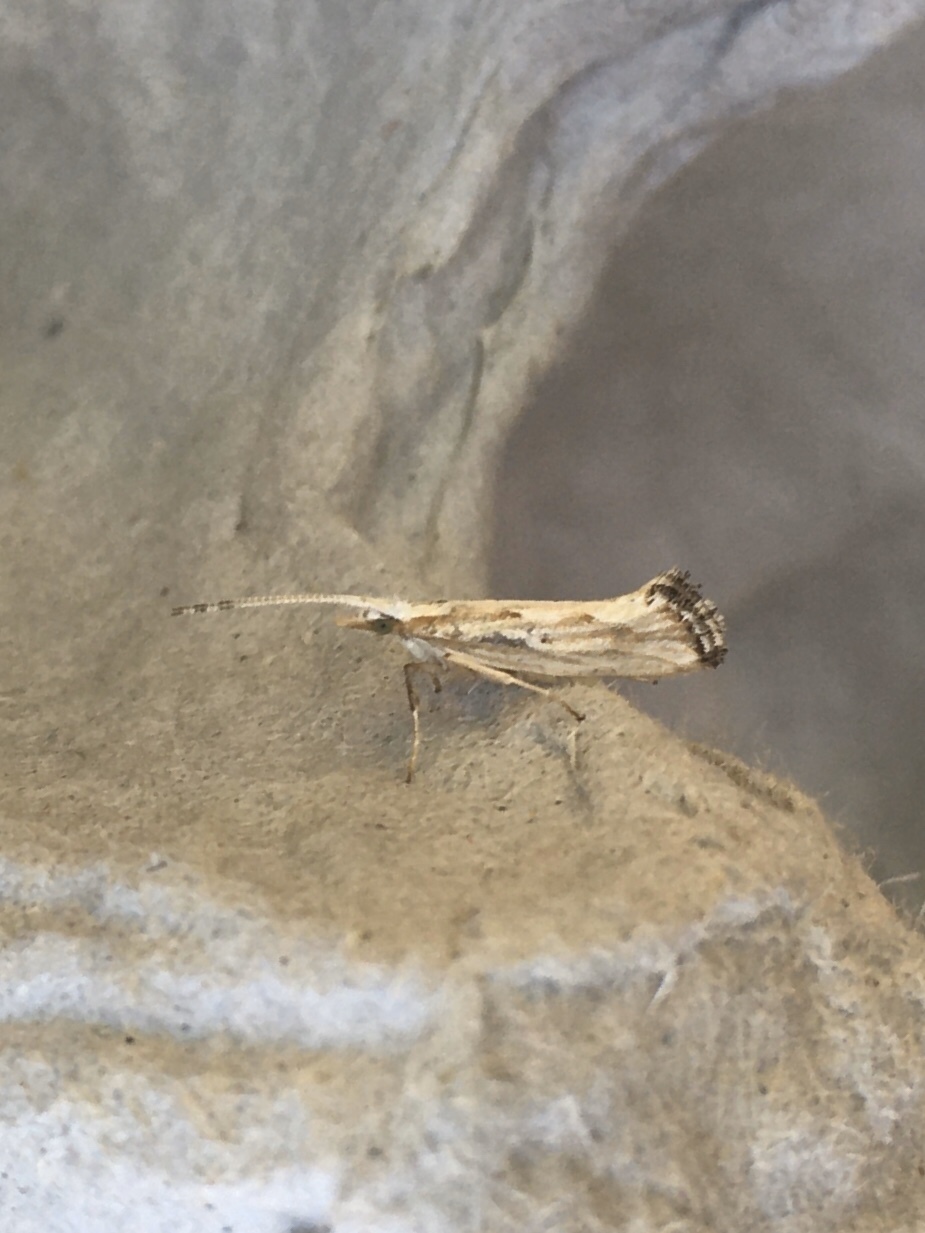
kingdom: Animalia
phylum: Arthropoda
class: Insecta
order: Lepidoptera
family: Plutellidae
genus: Plutella
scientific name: Plutella porrectella
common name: Dame's rocket moth
